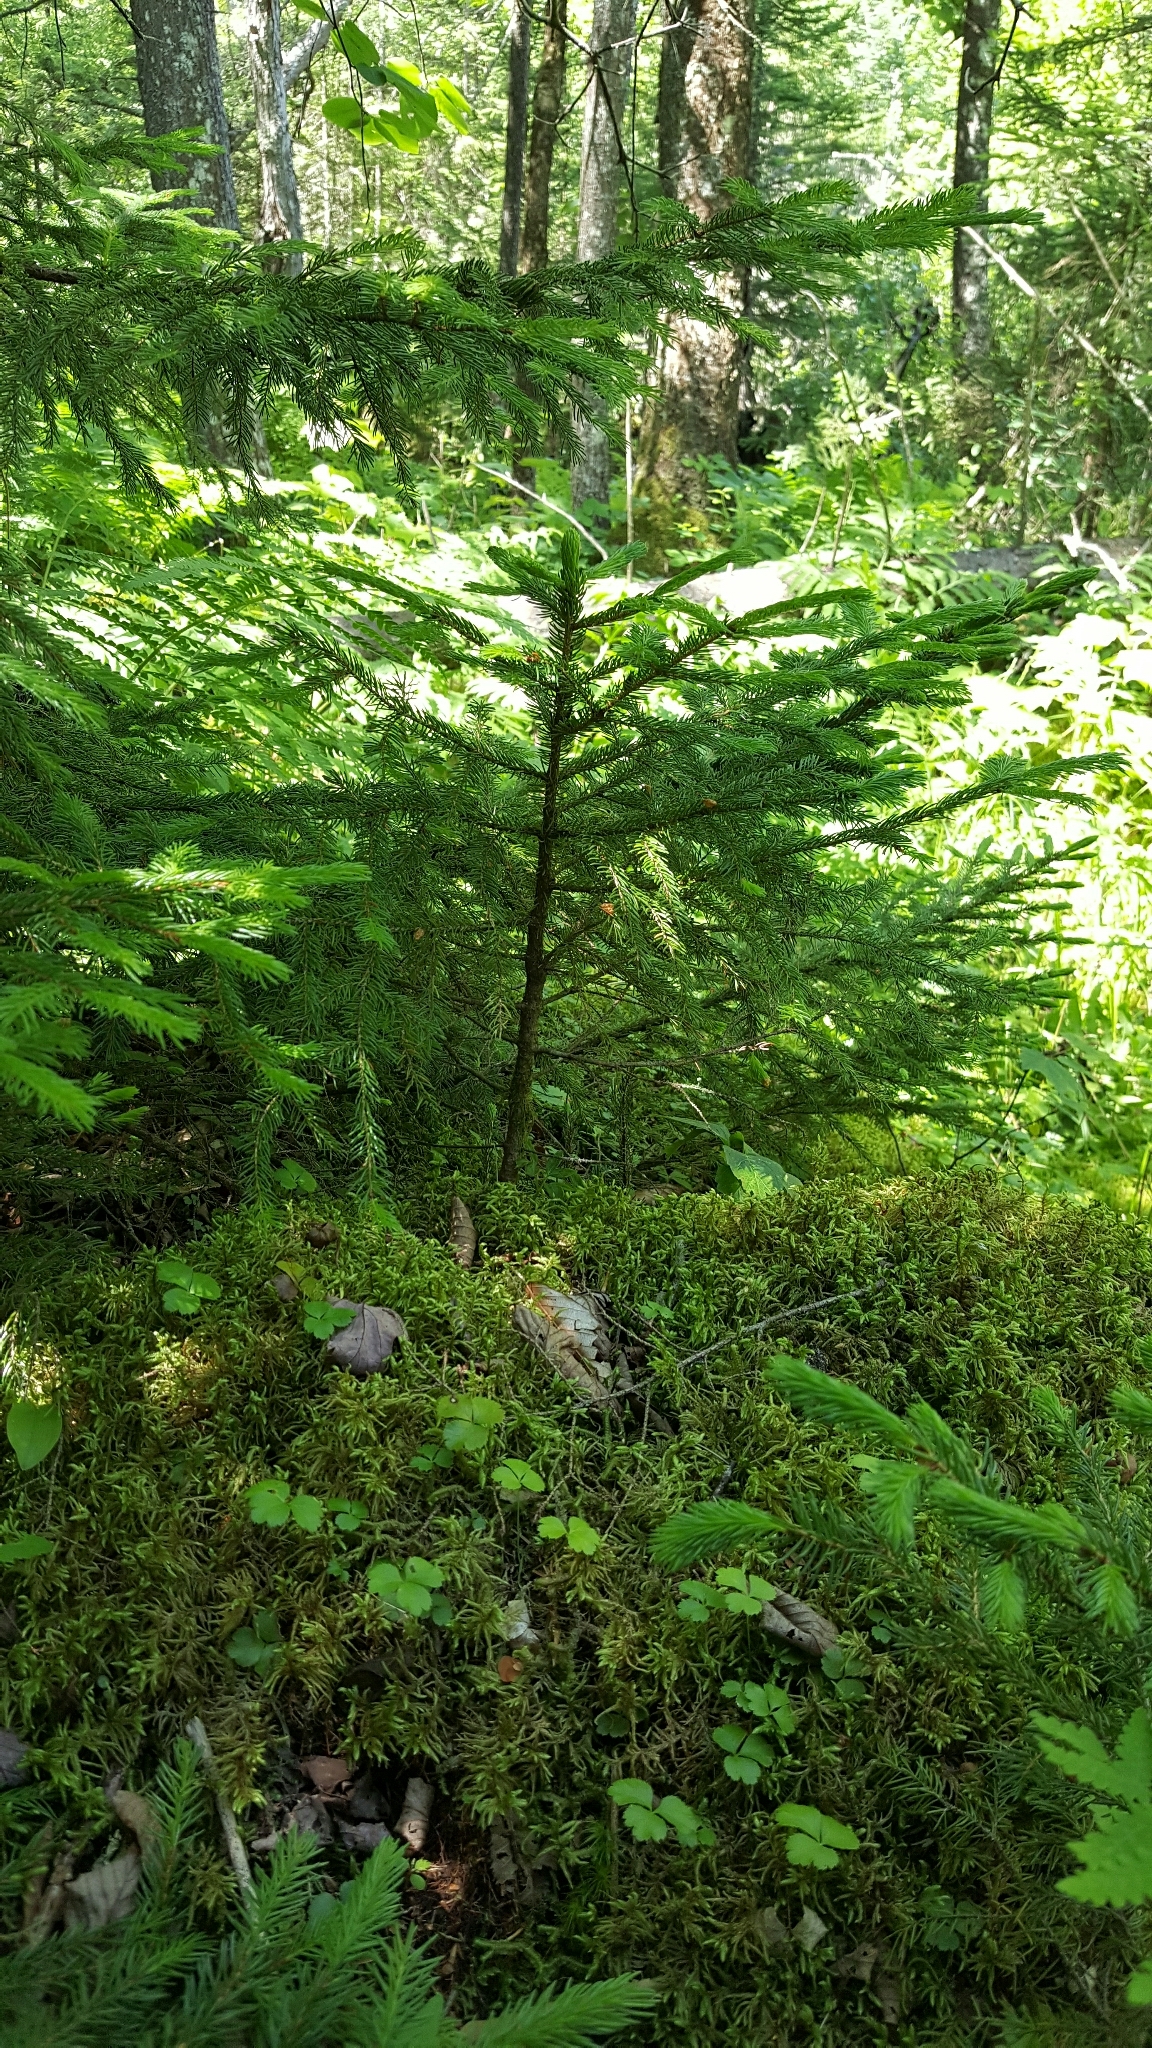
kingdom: Plantae
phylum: Tracheophyta
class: Magnoliopsida
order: Ranunculales
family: Ranunculaceae
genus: Coptis
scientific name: Coptis trifolia
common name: Canker-root
